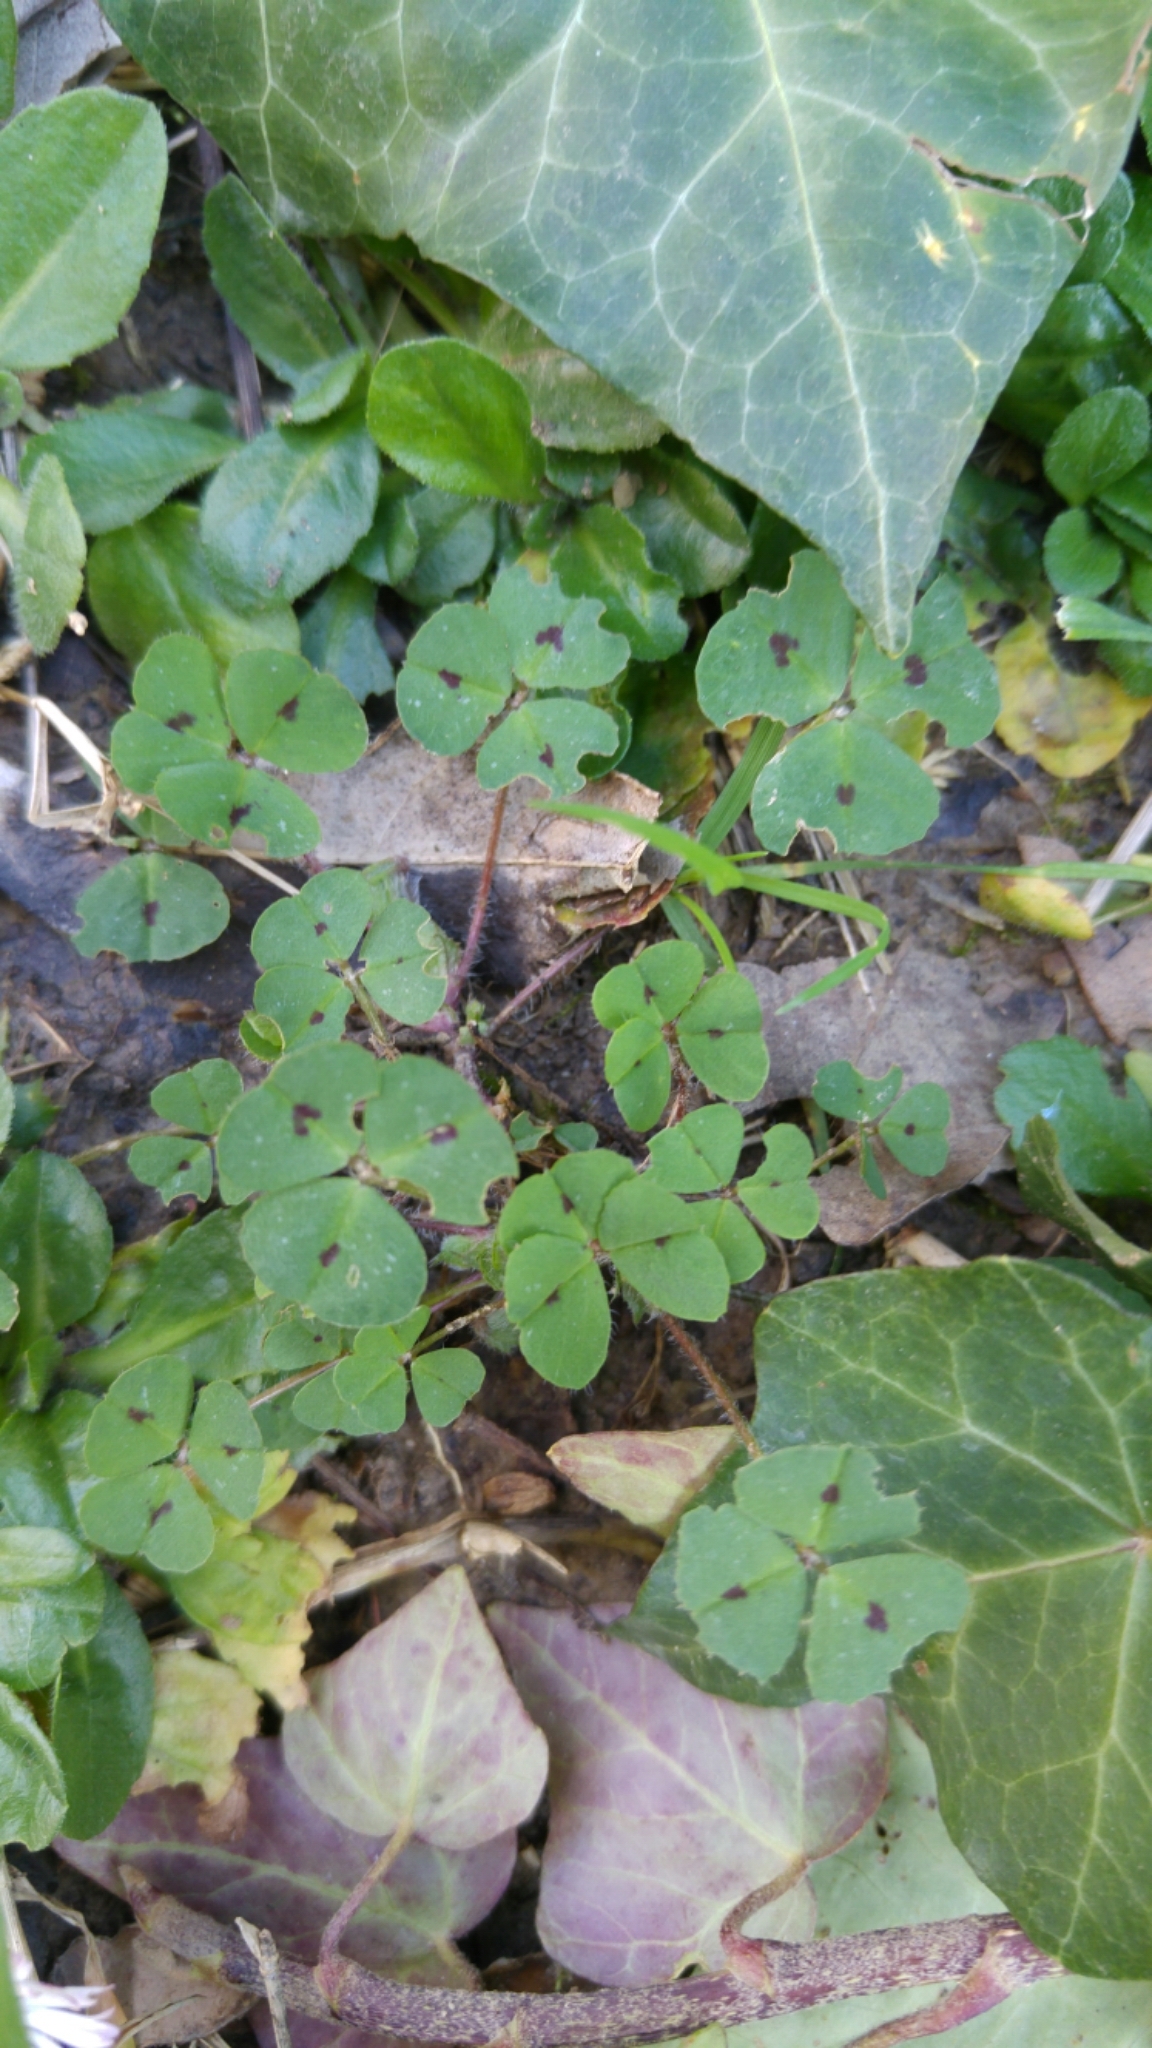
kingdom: Plantae
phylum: Tracheophyta
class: Magnoliopsida
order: Fabales
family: Fabaceae
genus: Medicago
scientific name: Medicago arabica
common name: Spotted medick
